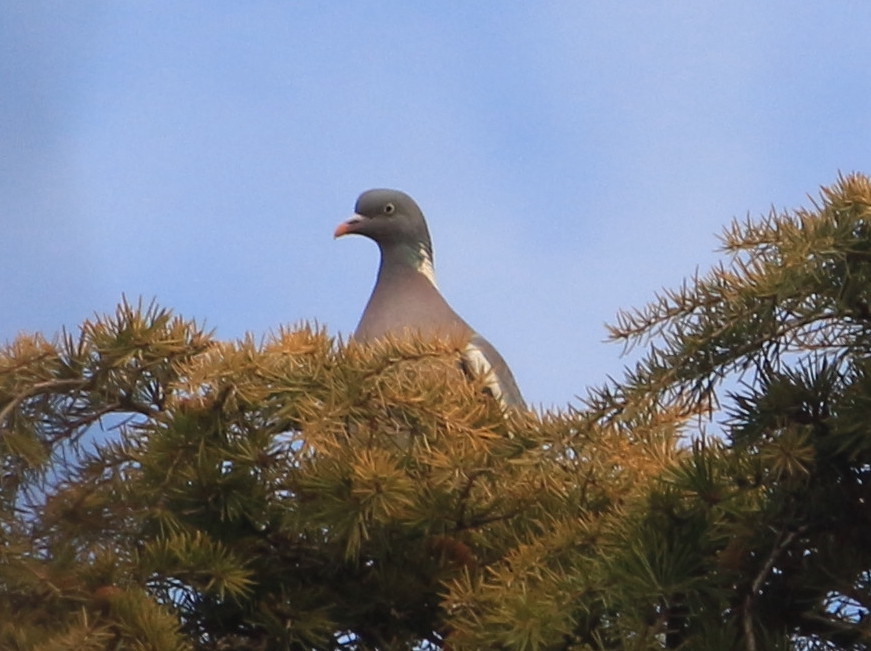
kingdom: Animalia
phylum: Chordata
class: Aves
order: Columbiformes
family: Columbidae
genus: Columba
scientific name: Columba palumbus
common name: Common wood pigeon
